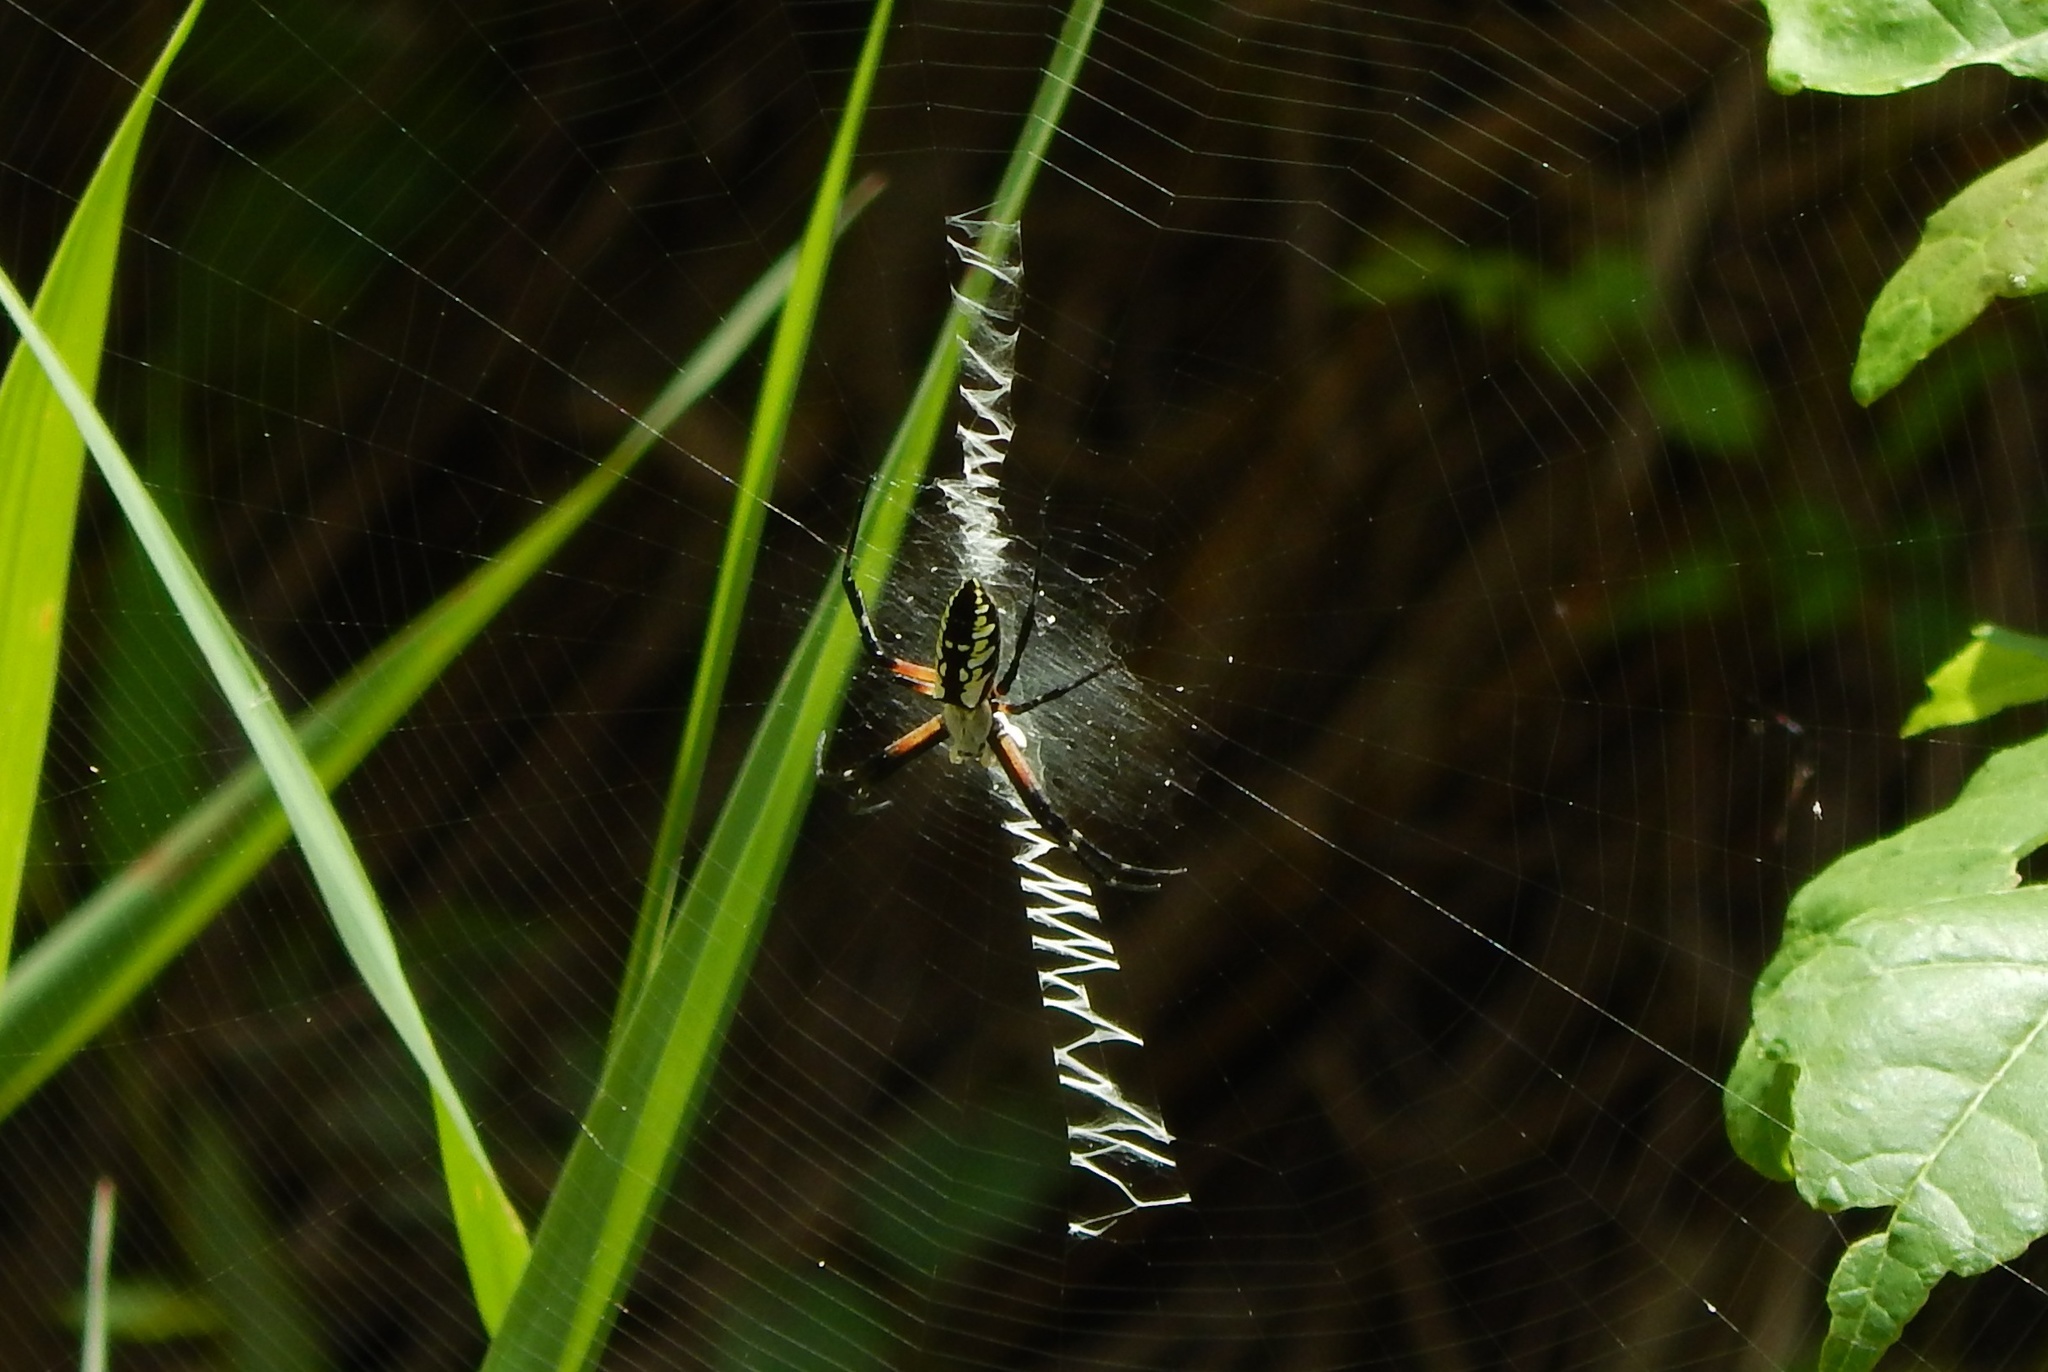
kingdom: Animalia
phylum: Arthropoda
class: Arachnida
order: Araneae
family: Araneidae
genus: Argiope
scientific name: Argiope aurantia
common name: Orb weavers
